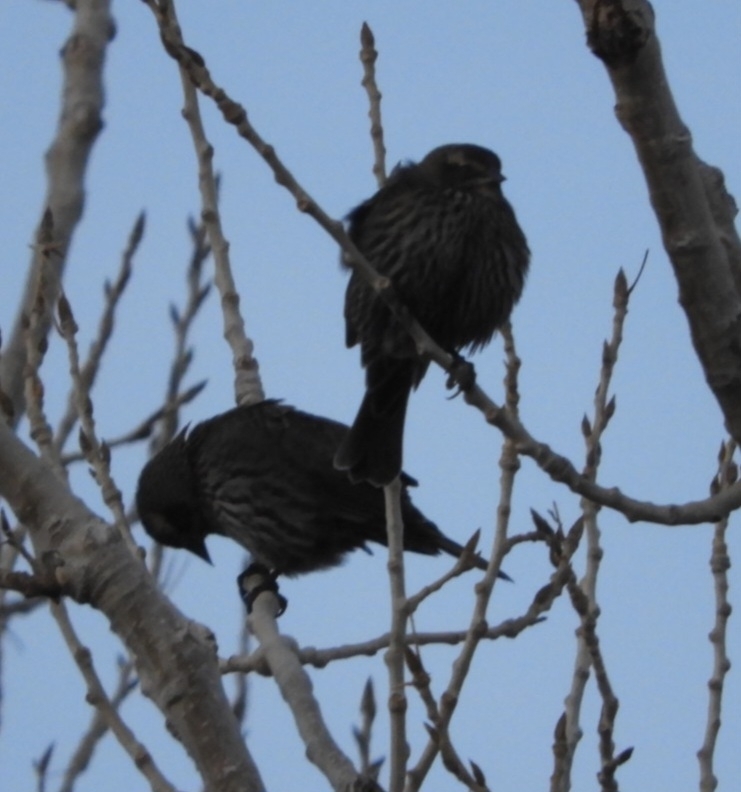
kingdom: Animalia
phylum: Chordata
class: Aves
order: Passeriformes
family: Icteridae
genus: Agelaius
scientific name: Agelaius phoeniceus
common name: Red-winged blackbird
